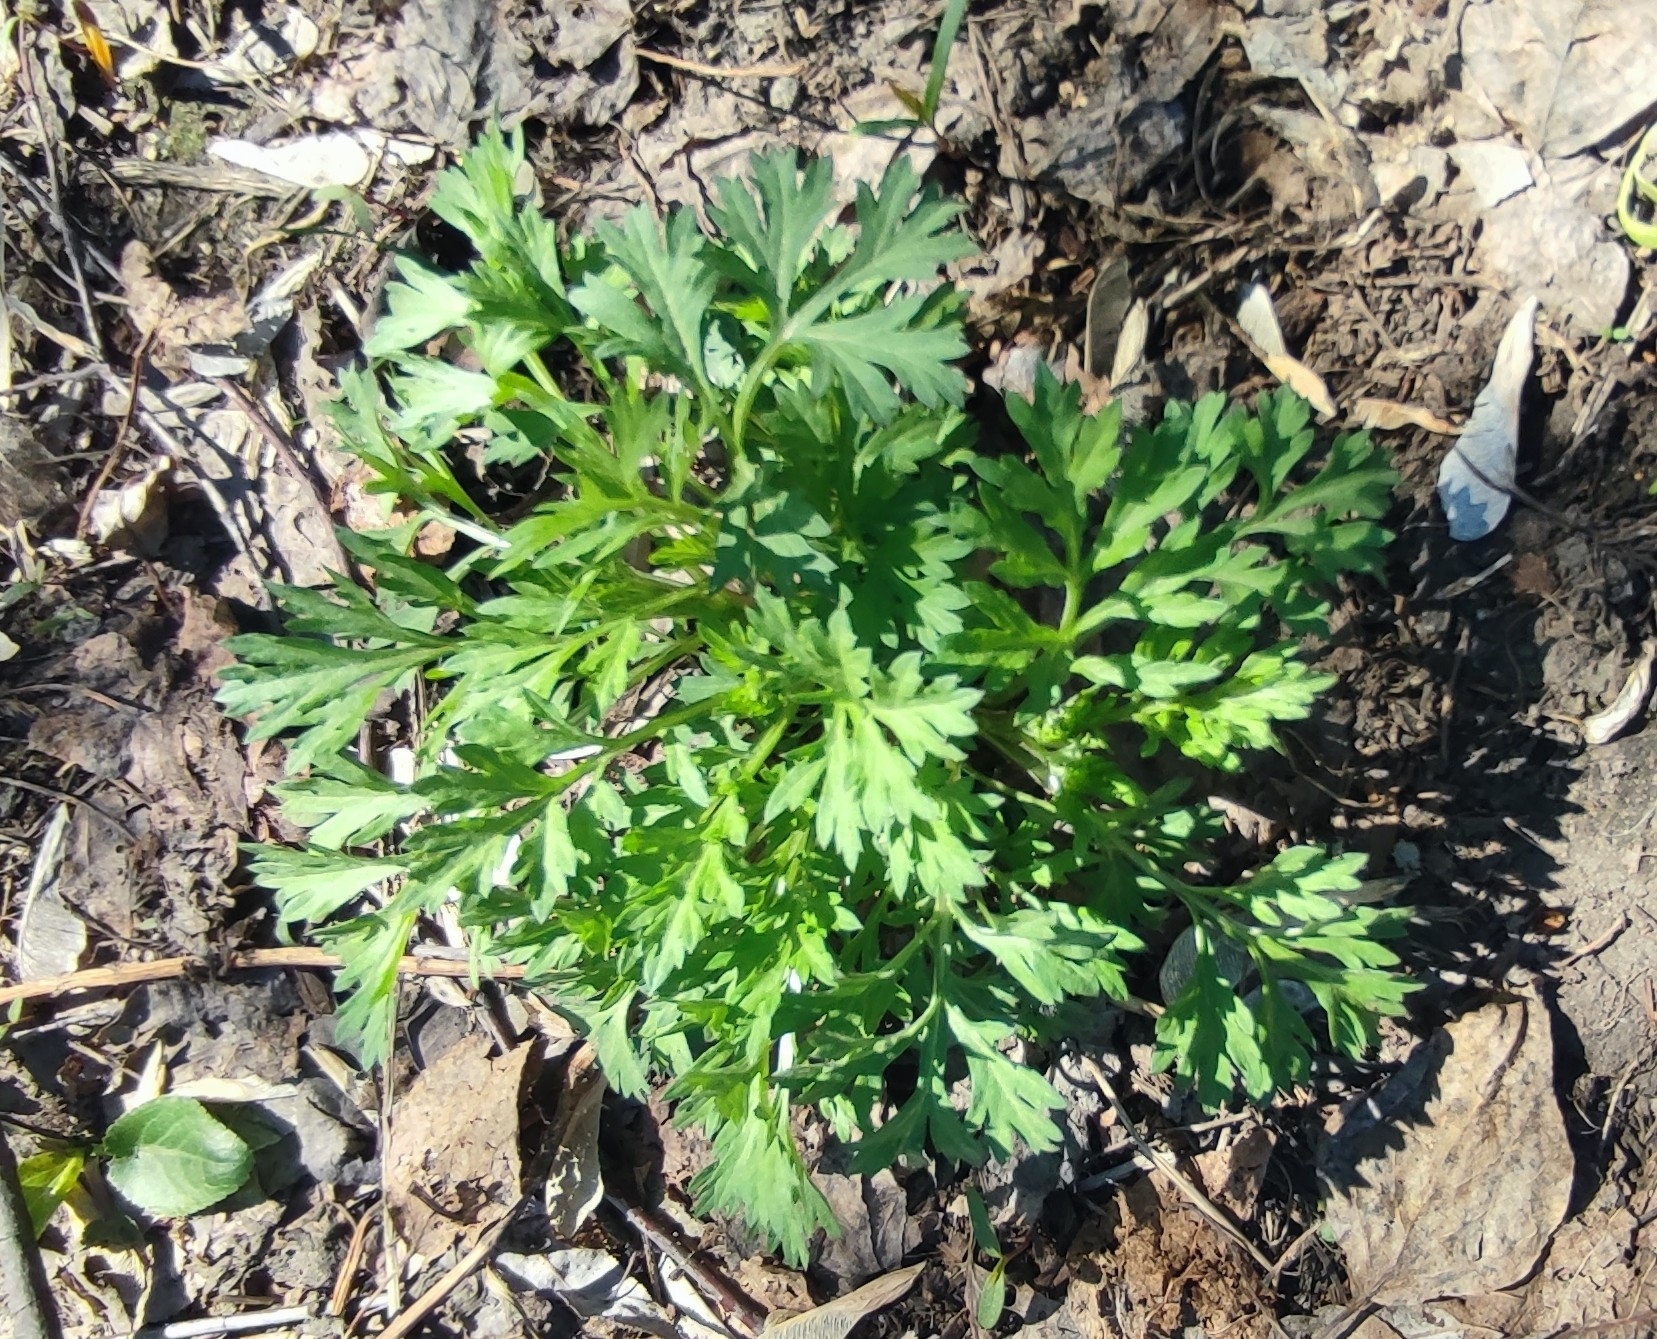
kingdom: Plantae
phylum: Tracheophyta
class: Magnoliopsida
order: Asterales
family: Asteraceae
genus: Artemisia
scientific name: Artemisia vulgaris
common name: Mugwort
